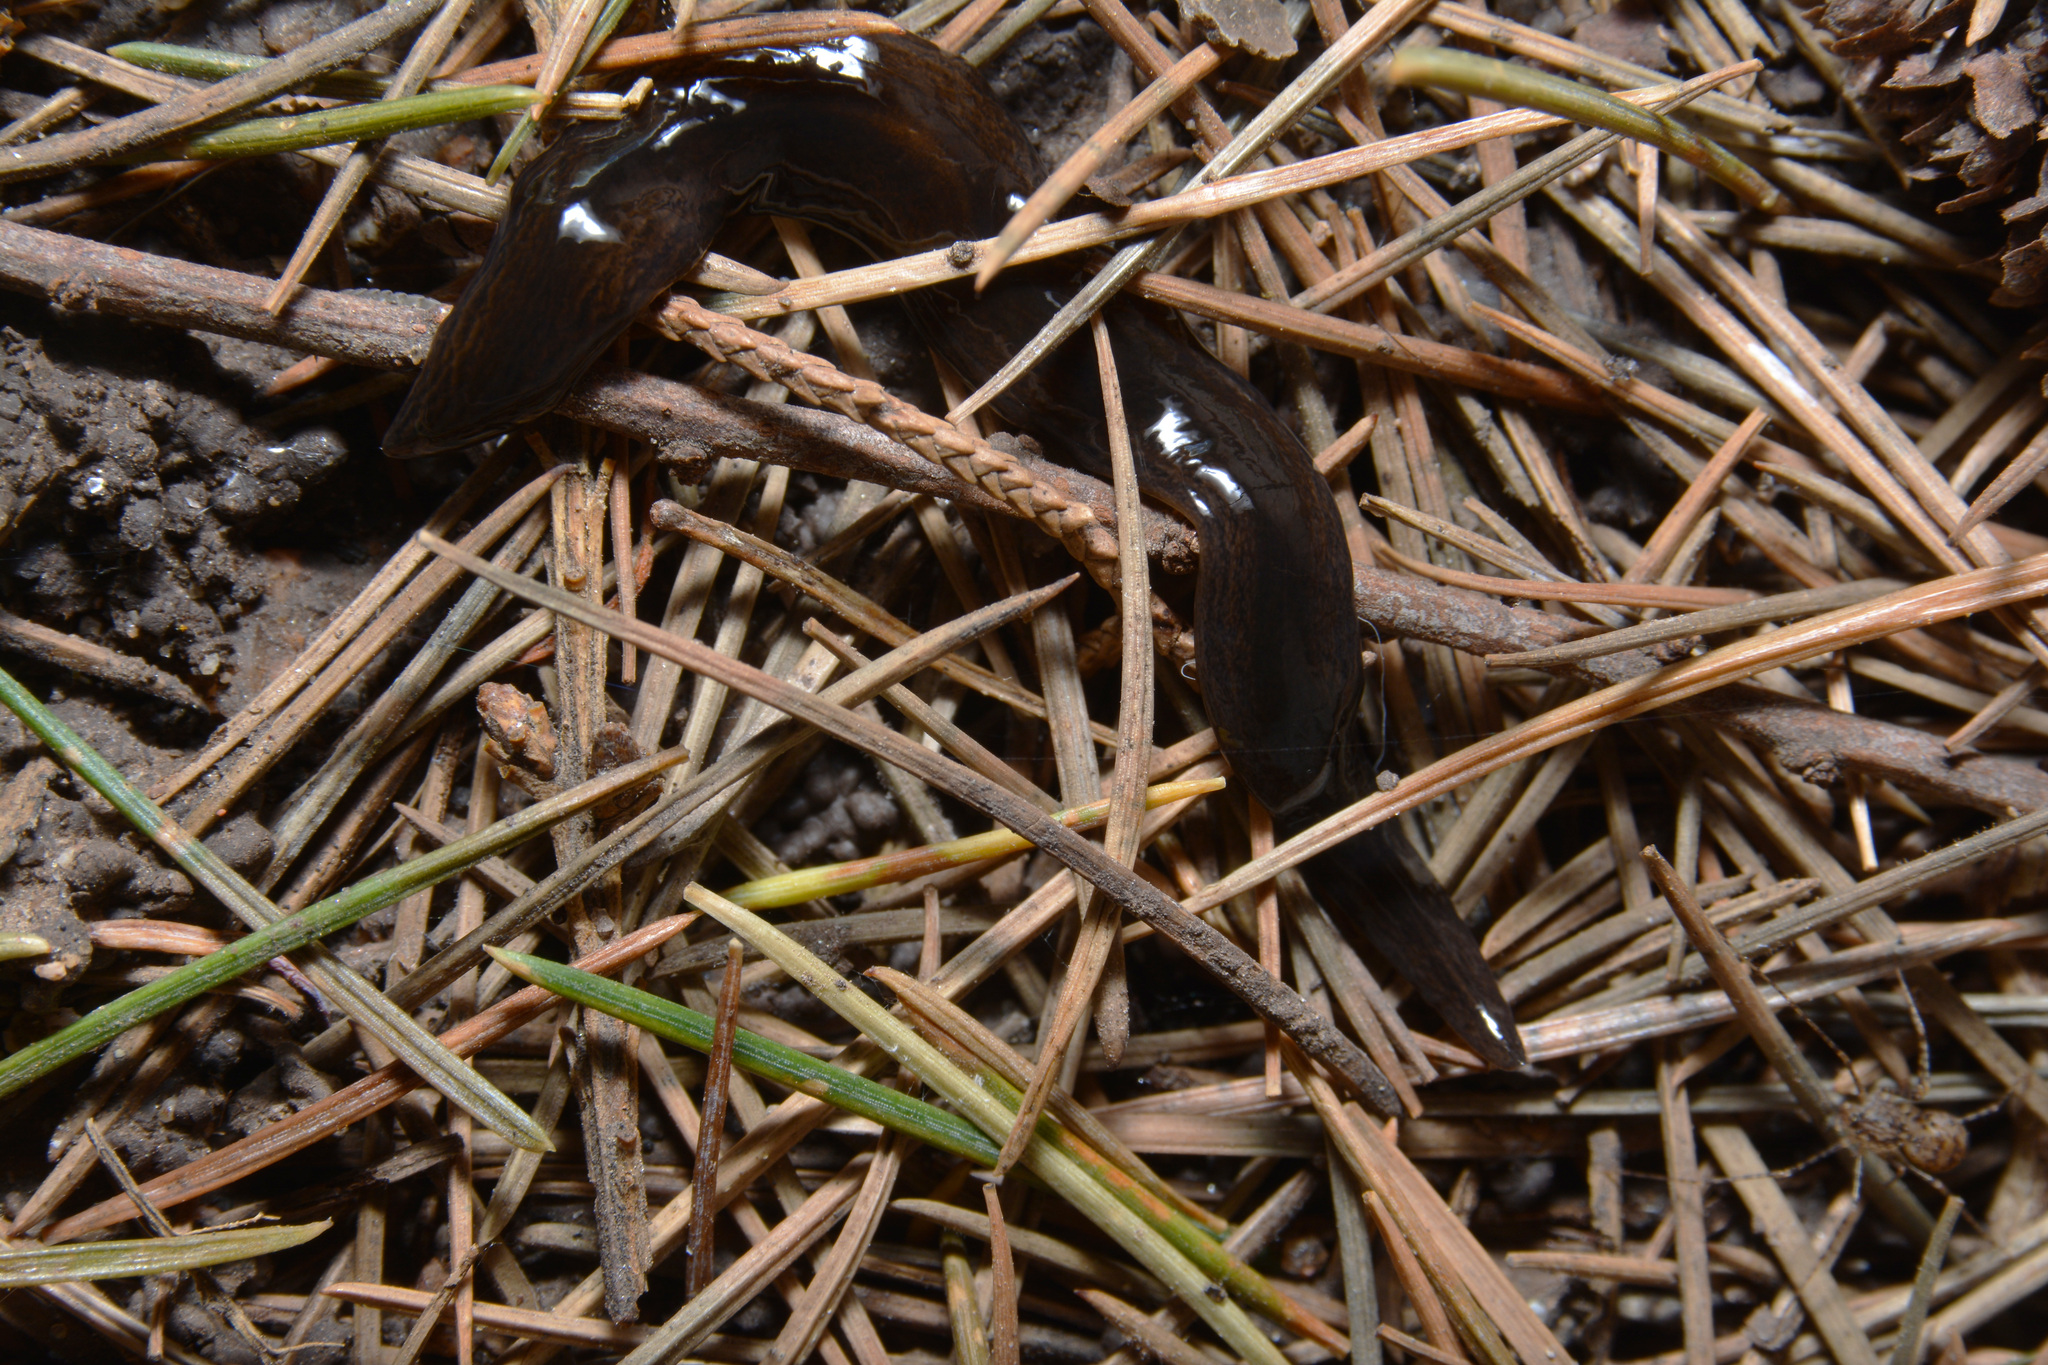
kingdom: Animalia
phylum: Platyhelminthes
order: Tricladida
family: Geoplanidae
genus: Obama
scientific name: Obama nungara
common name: Obama flatworm
